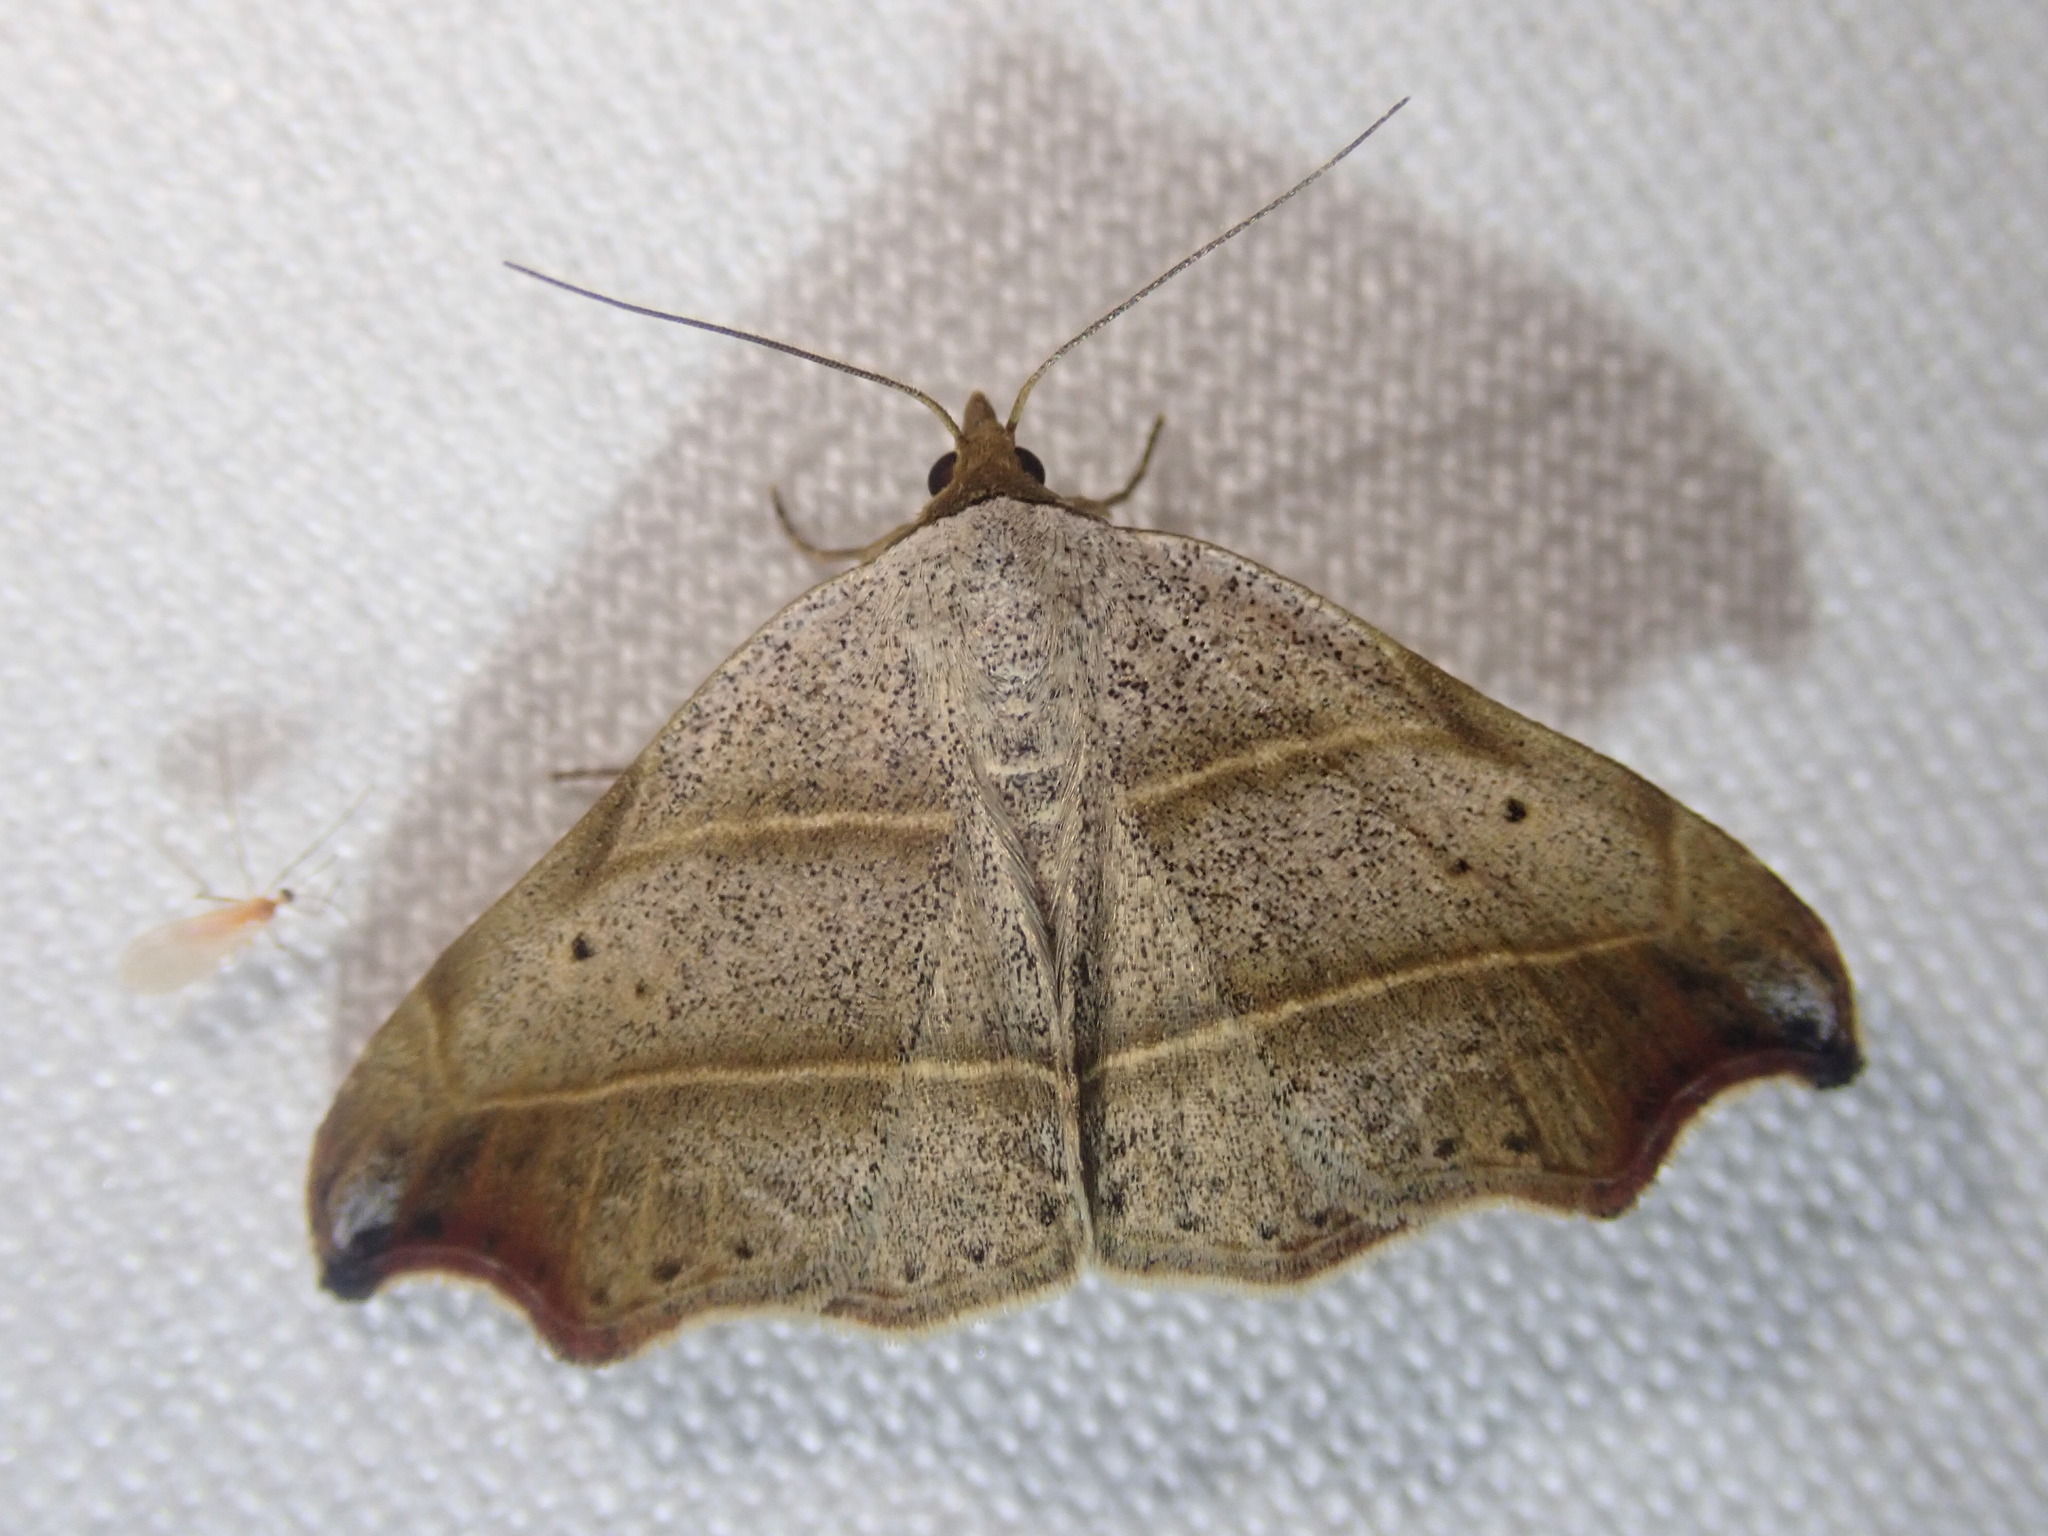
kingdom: Animalia
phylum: Arthropoda
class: Insecta
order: Lepidoptera
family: Erebidae
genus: Laspeyria
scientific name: Laspeyria flexula
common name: Beautiful hook-tip
